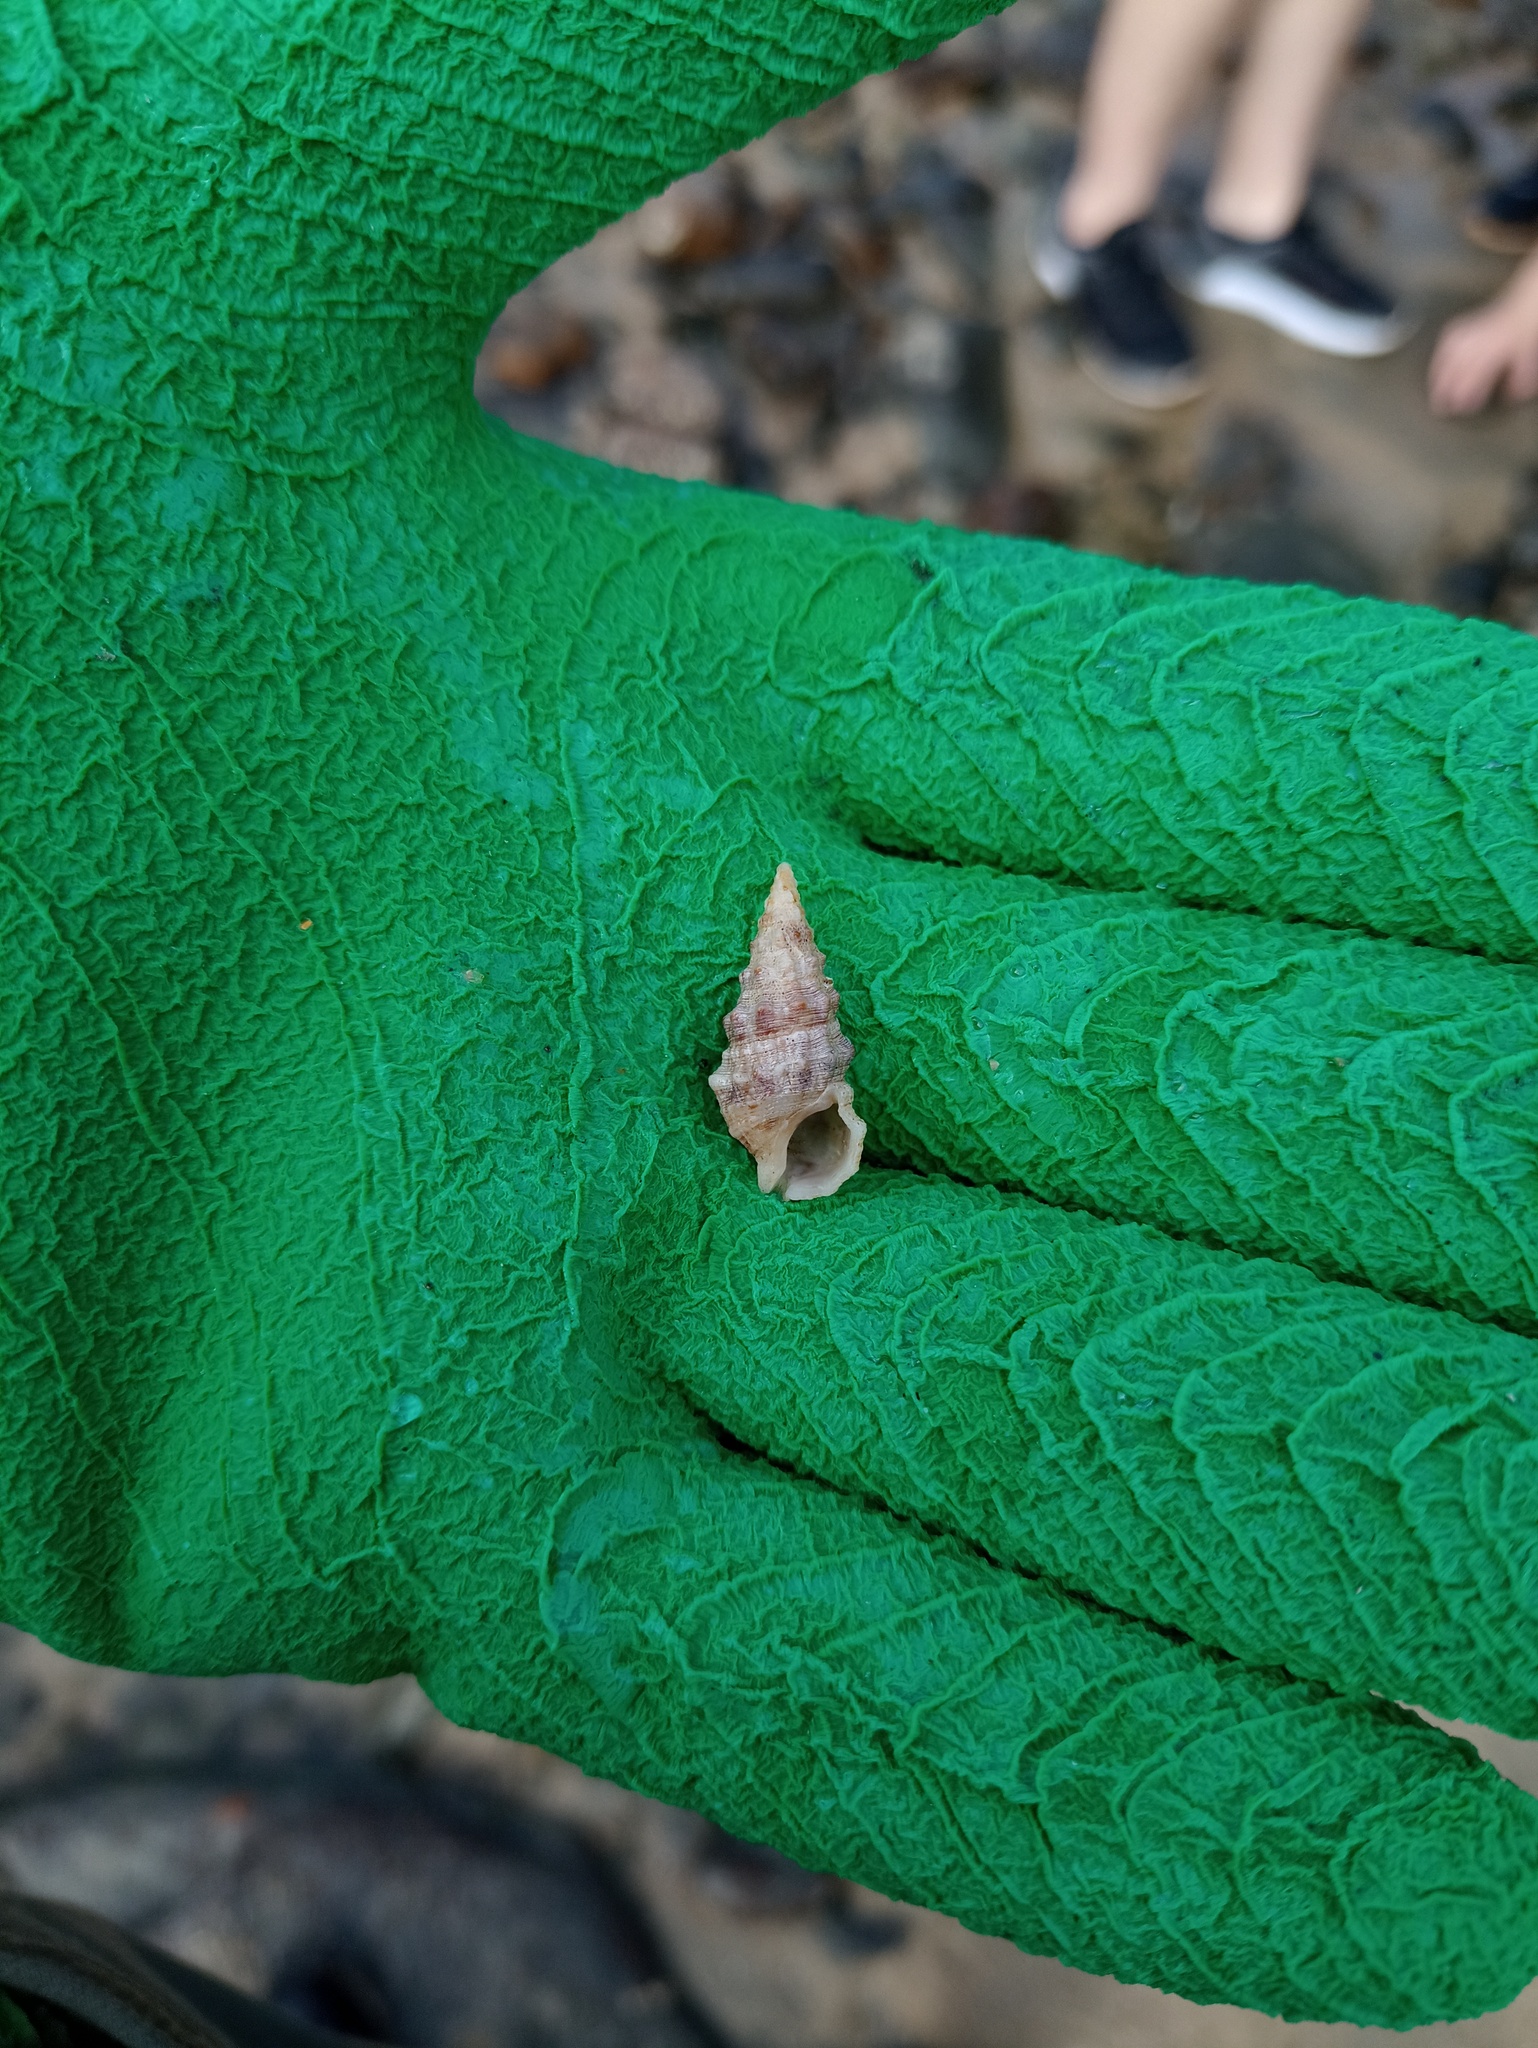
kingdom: Animalia
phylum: Mollusca
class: Gastropoda
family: Cerithiidae
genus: Cerithium
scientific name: Cerithium atratum
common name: Dark cerith
